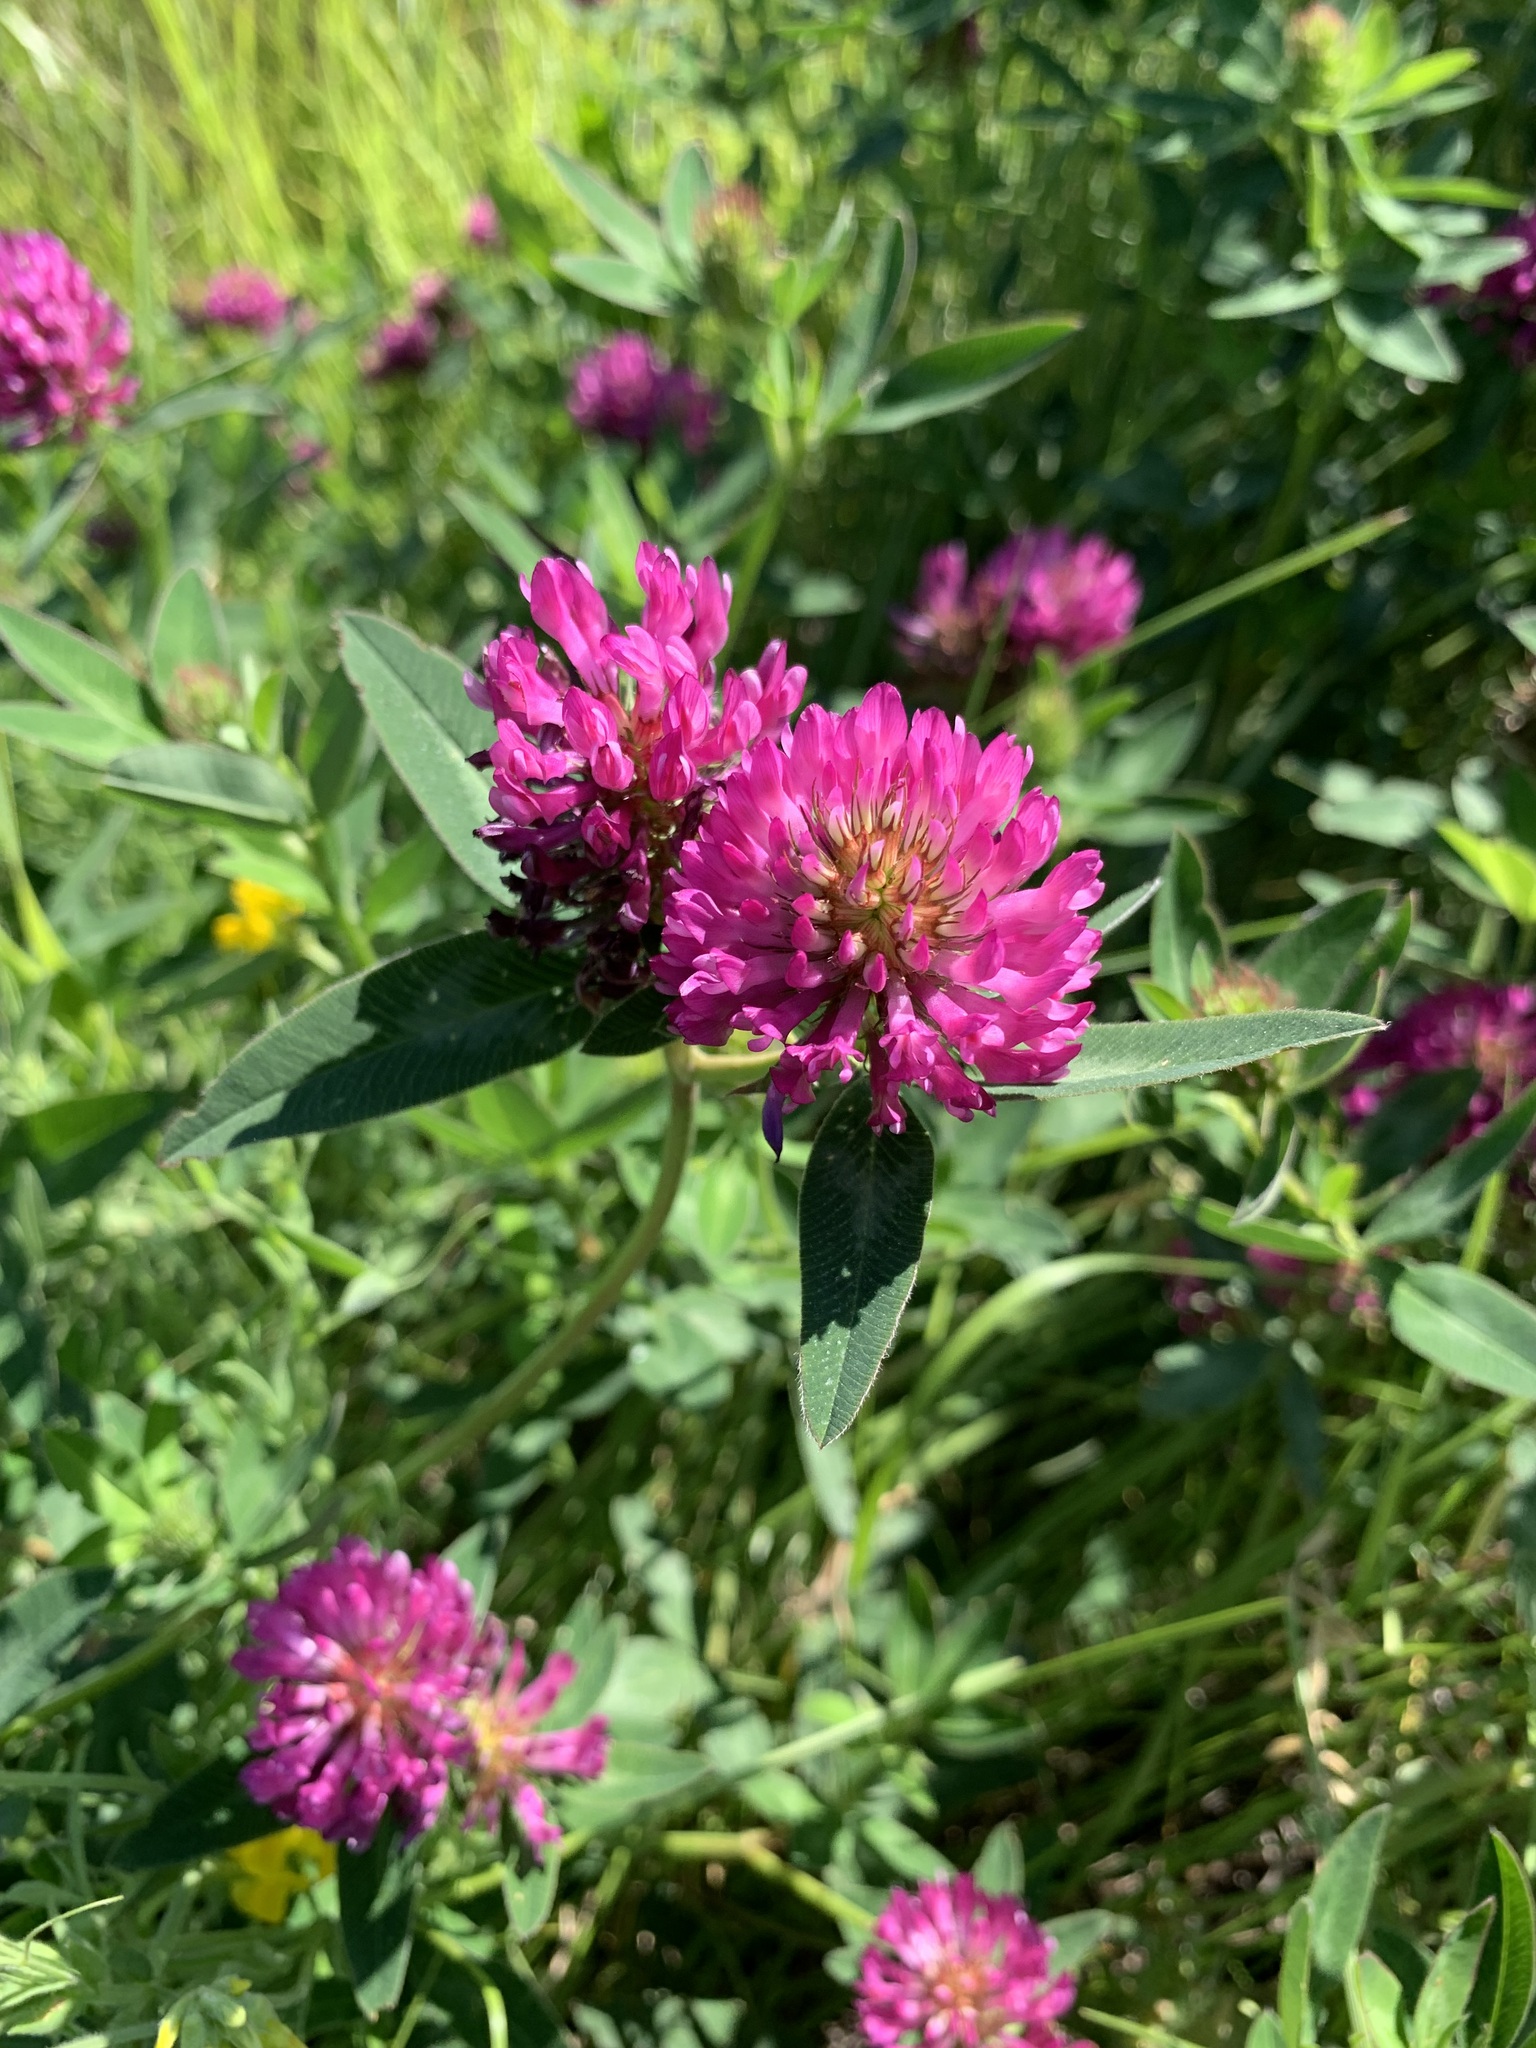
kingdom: Plantae
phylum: Tracheophyta
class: Magnoliopsida
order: Fabales
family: Fabaceae
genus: Trifolium
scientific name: Trifolium medium
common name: Zigzag clover
